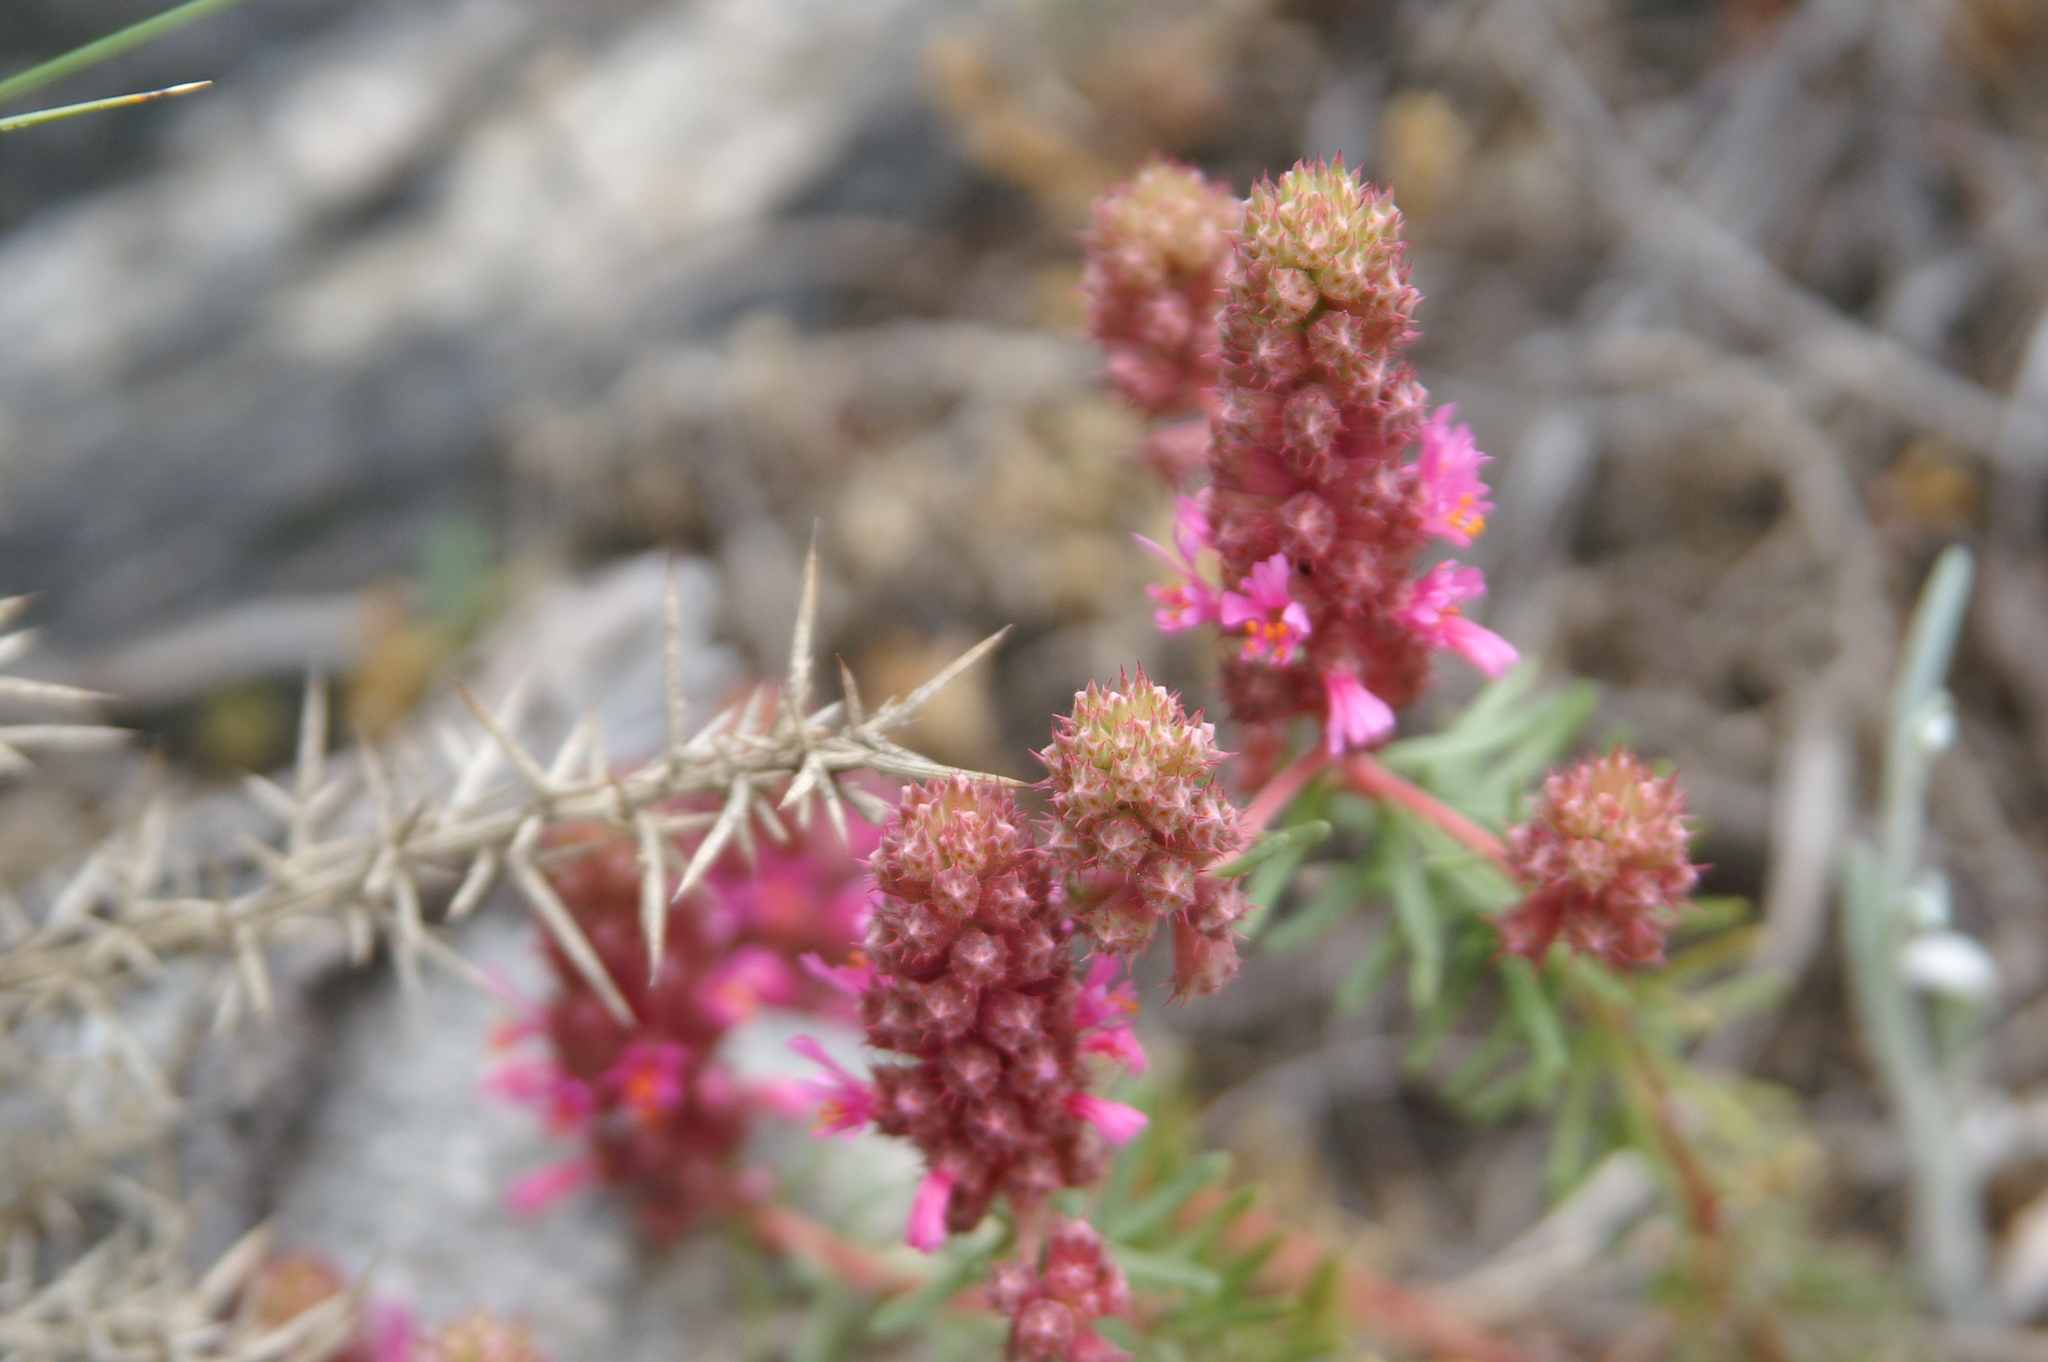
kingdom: Plantae
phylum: Tracheophyta
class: Magnoliopsida
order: Ericales
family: Primulaceae
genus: Coris
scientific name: Coris monspeliensis
